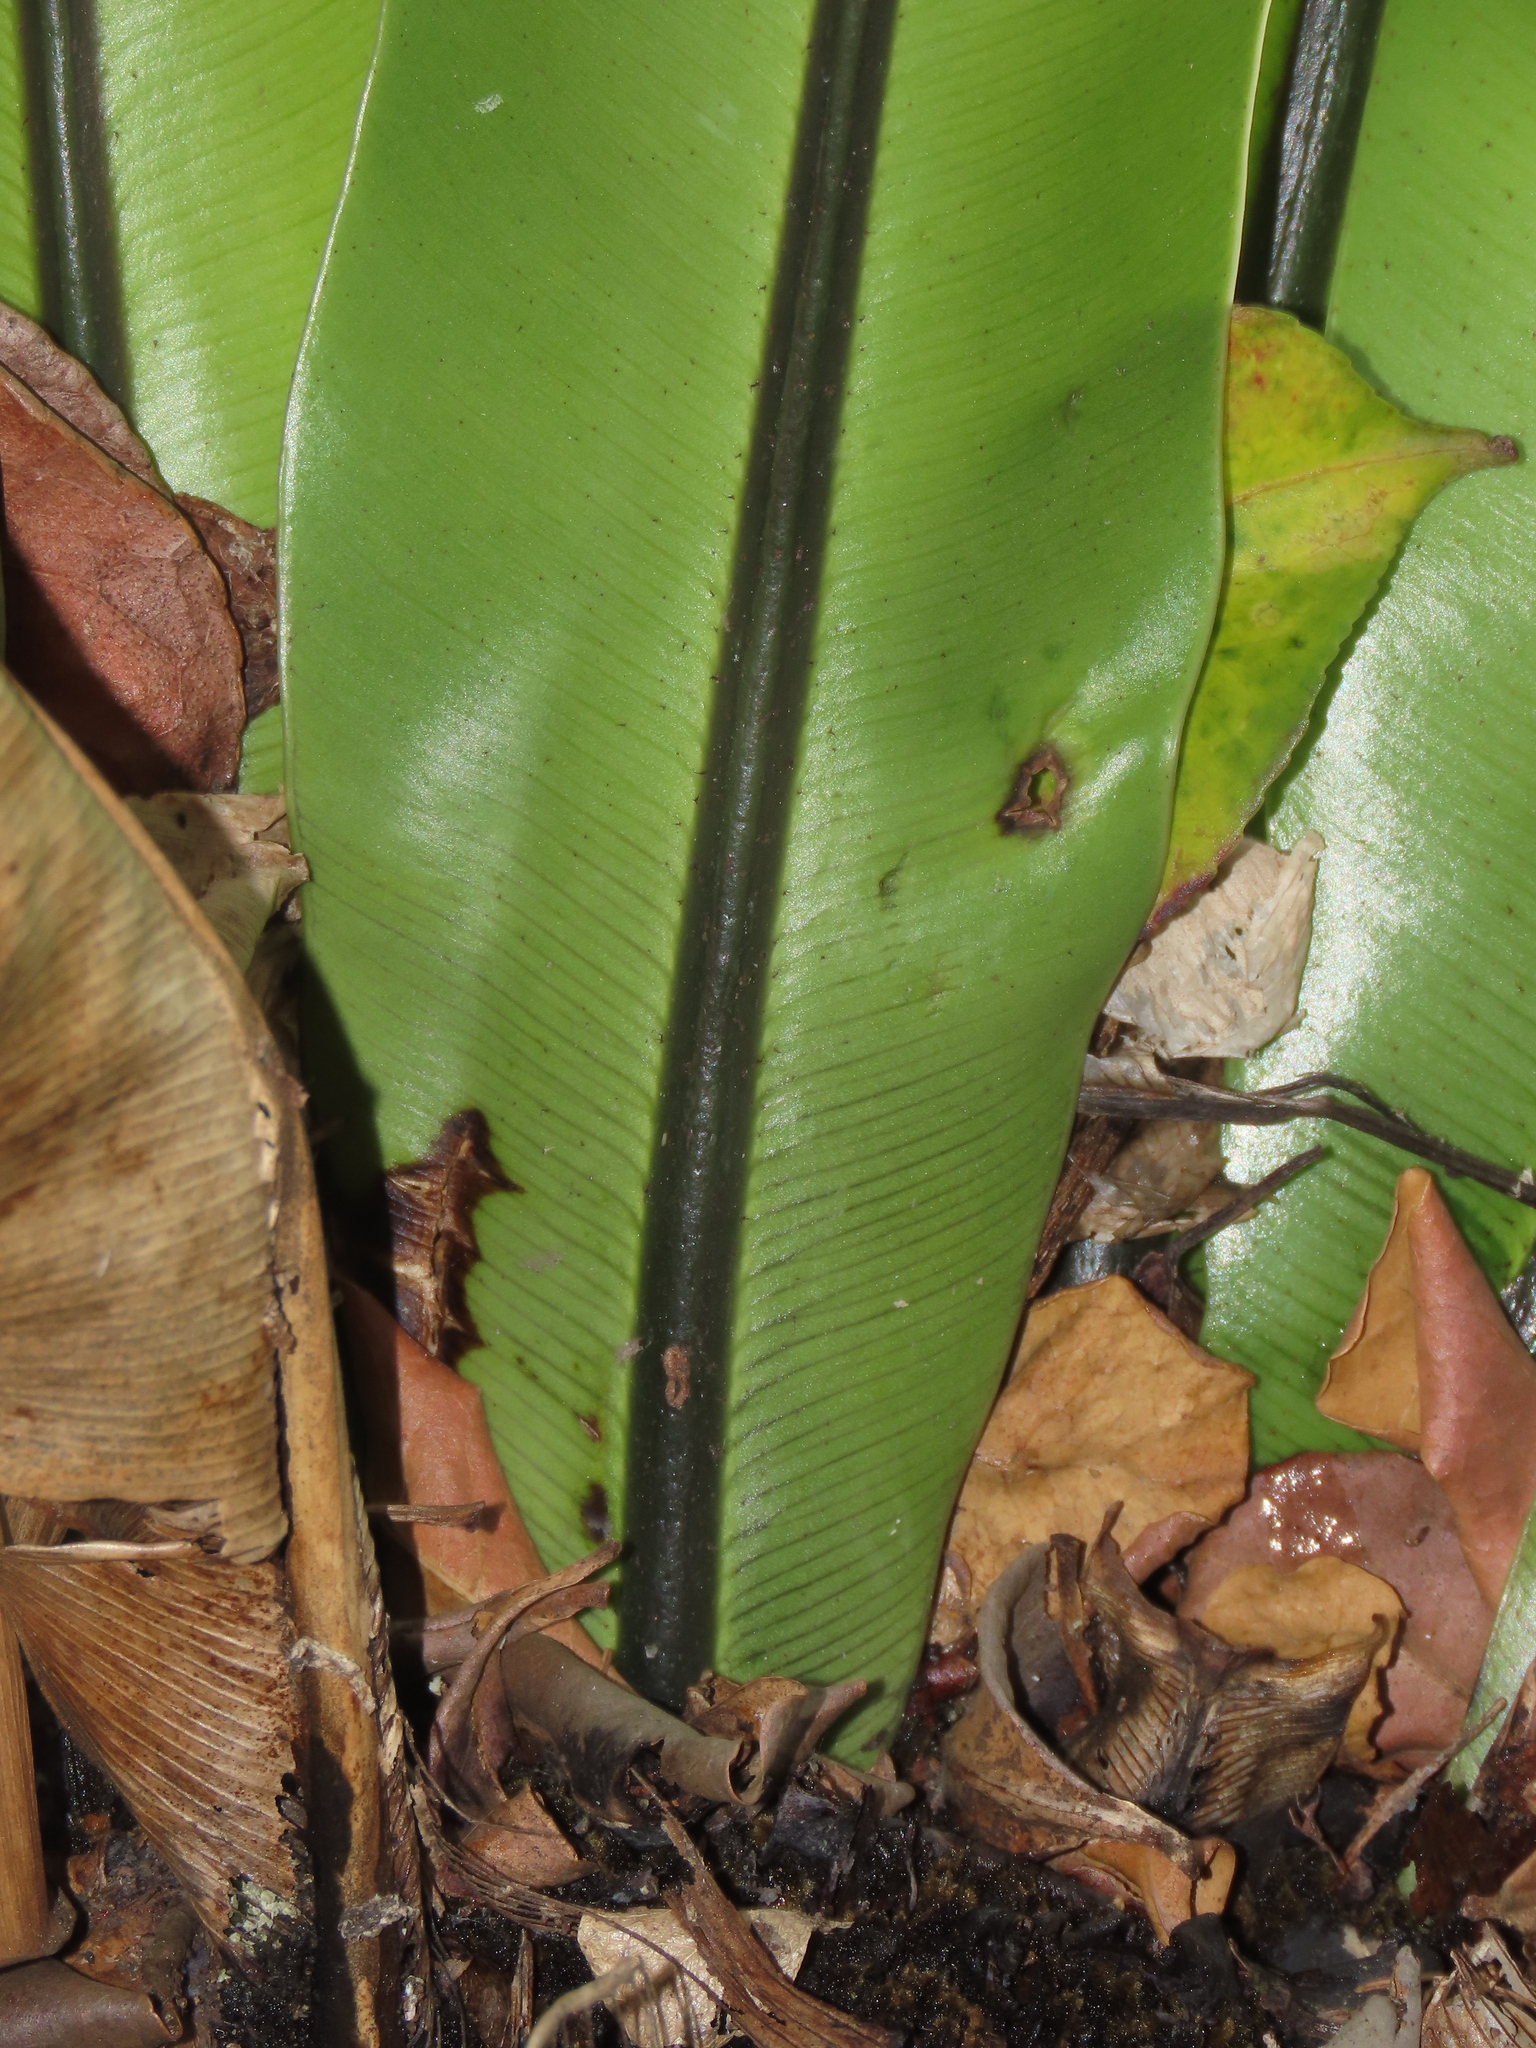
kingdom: Plantae
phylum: Tracheophyta
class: Polypodiopsida
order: Polypodiales
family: Aspleniaceae
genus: Asplenium
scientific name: Asplenium nidus
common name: Bird's-nest fern
